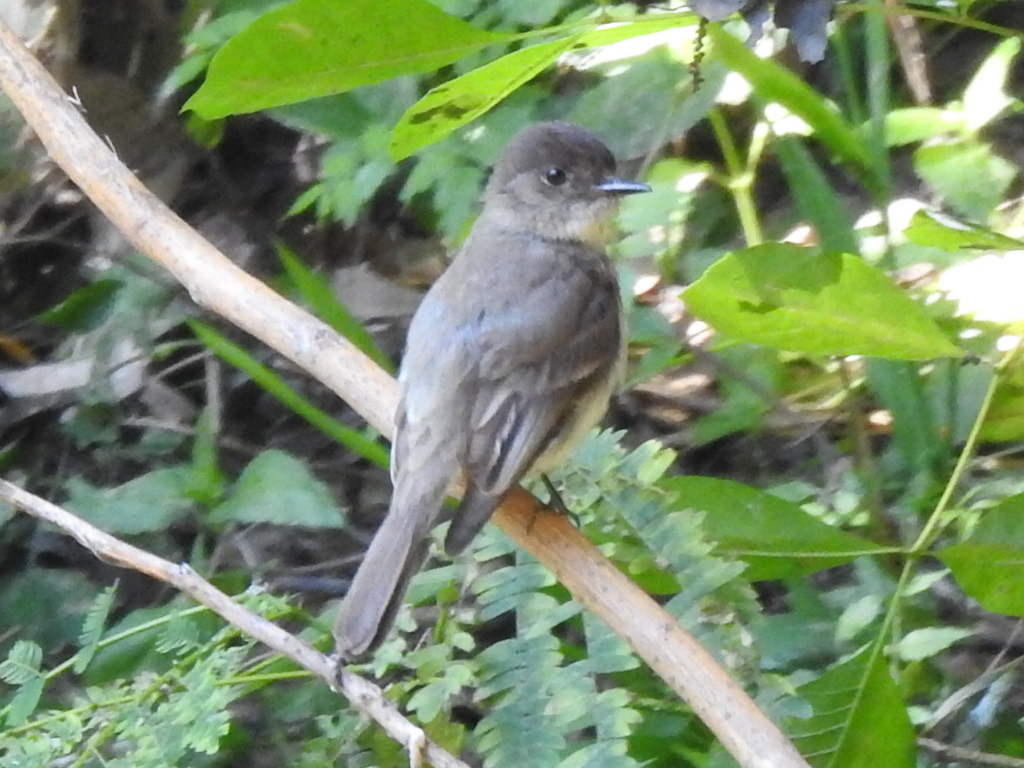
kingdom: Animalia
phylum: Chordata
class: Aves
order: Passeriformes
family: Tyrannidae
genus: Sayornis
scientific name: Sayornis phoebe
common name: Eastern phoebe
